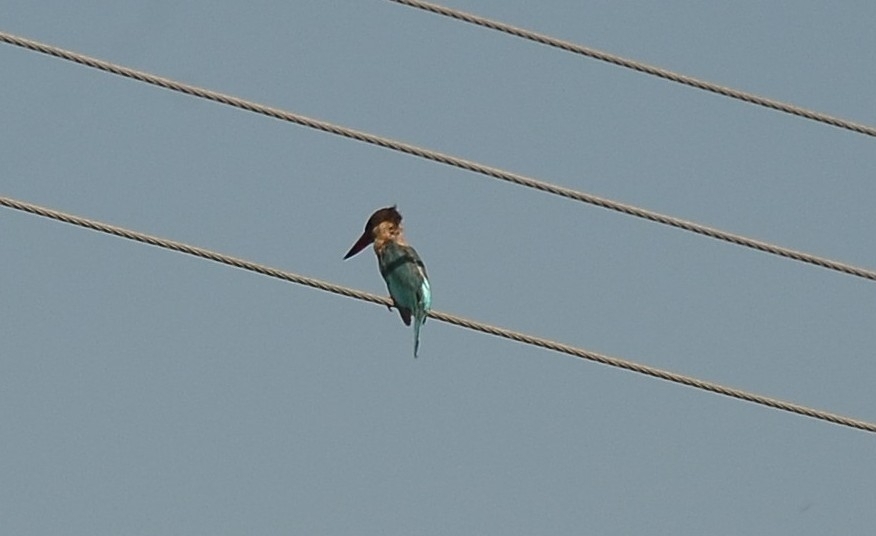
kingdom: Animalia
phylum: Chordata
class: Aves
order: Coraciiformes
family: Alcedinidae
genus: Pelargopsis
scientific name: Pelargopsis capensis
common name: Stork-billed kingfisher
